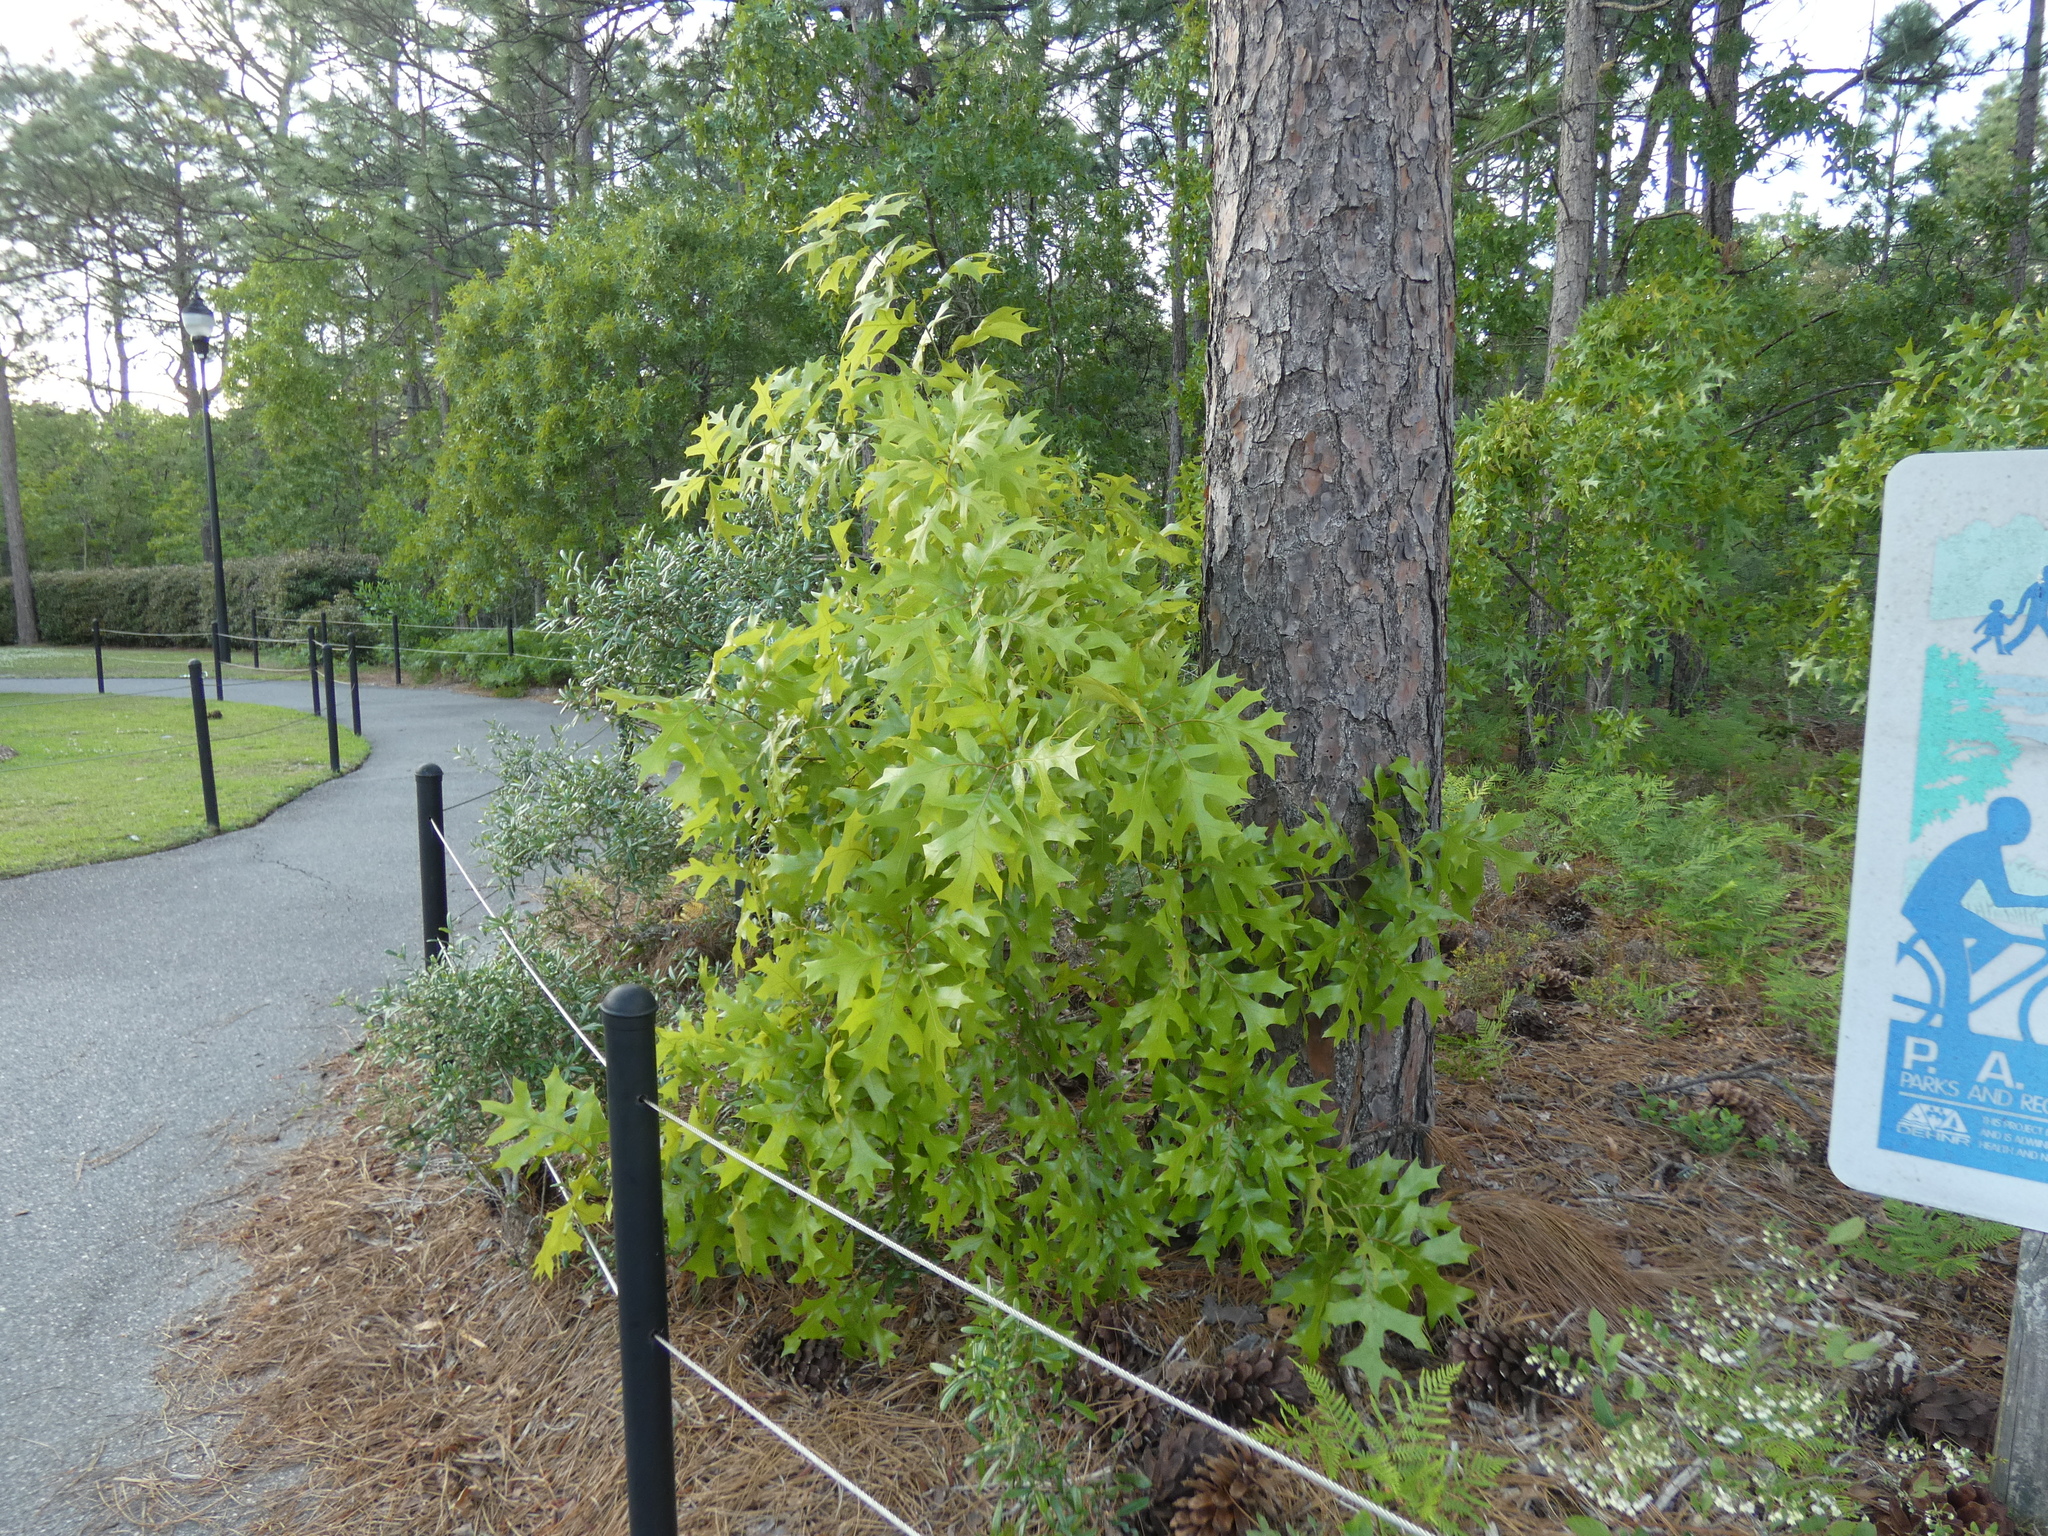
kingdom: Plantae
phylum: Tracheophyta
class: Magnoliopsida
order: Fagales
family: Fagaceae
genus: Quercus
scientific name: Quercus laevis
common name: Turkey oak
